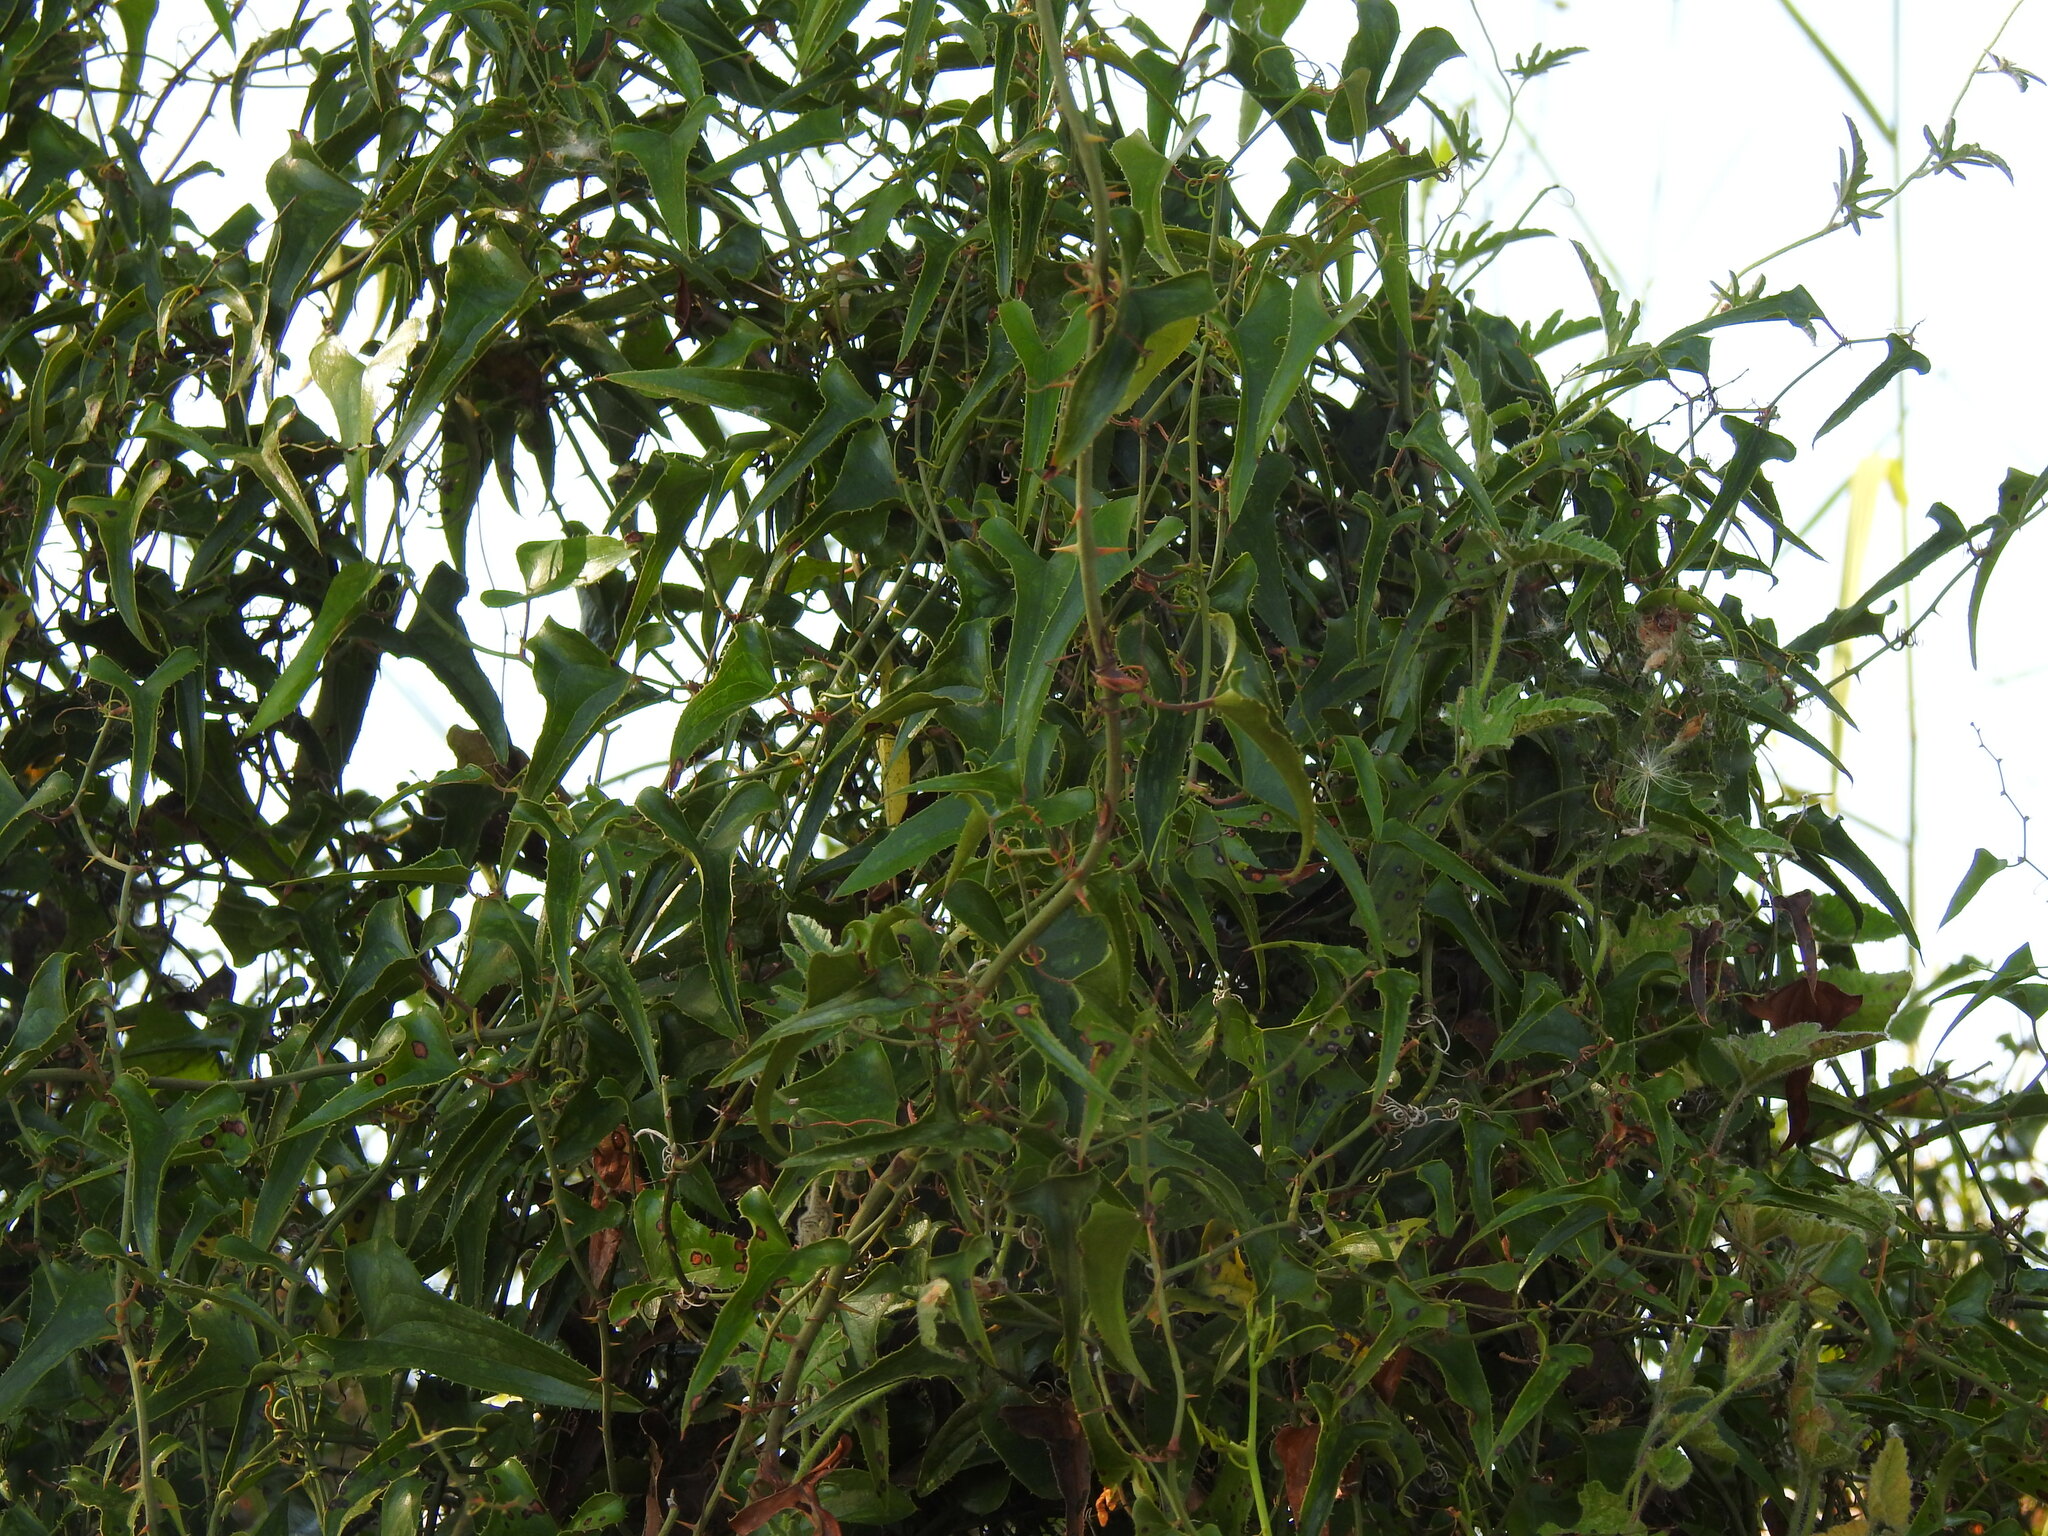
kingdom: Plantae
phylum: Tracheophyta
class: Liliopsida
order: Liliales
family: Smilacaceae
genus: Smilax
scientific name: Smilax aspera
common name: Common smilax
